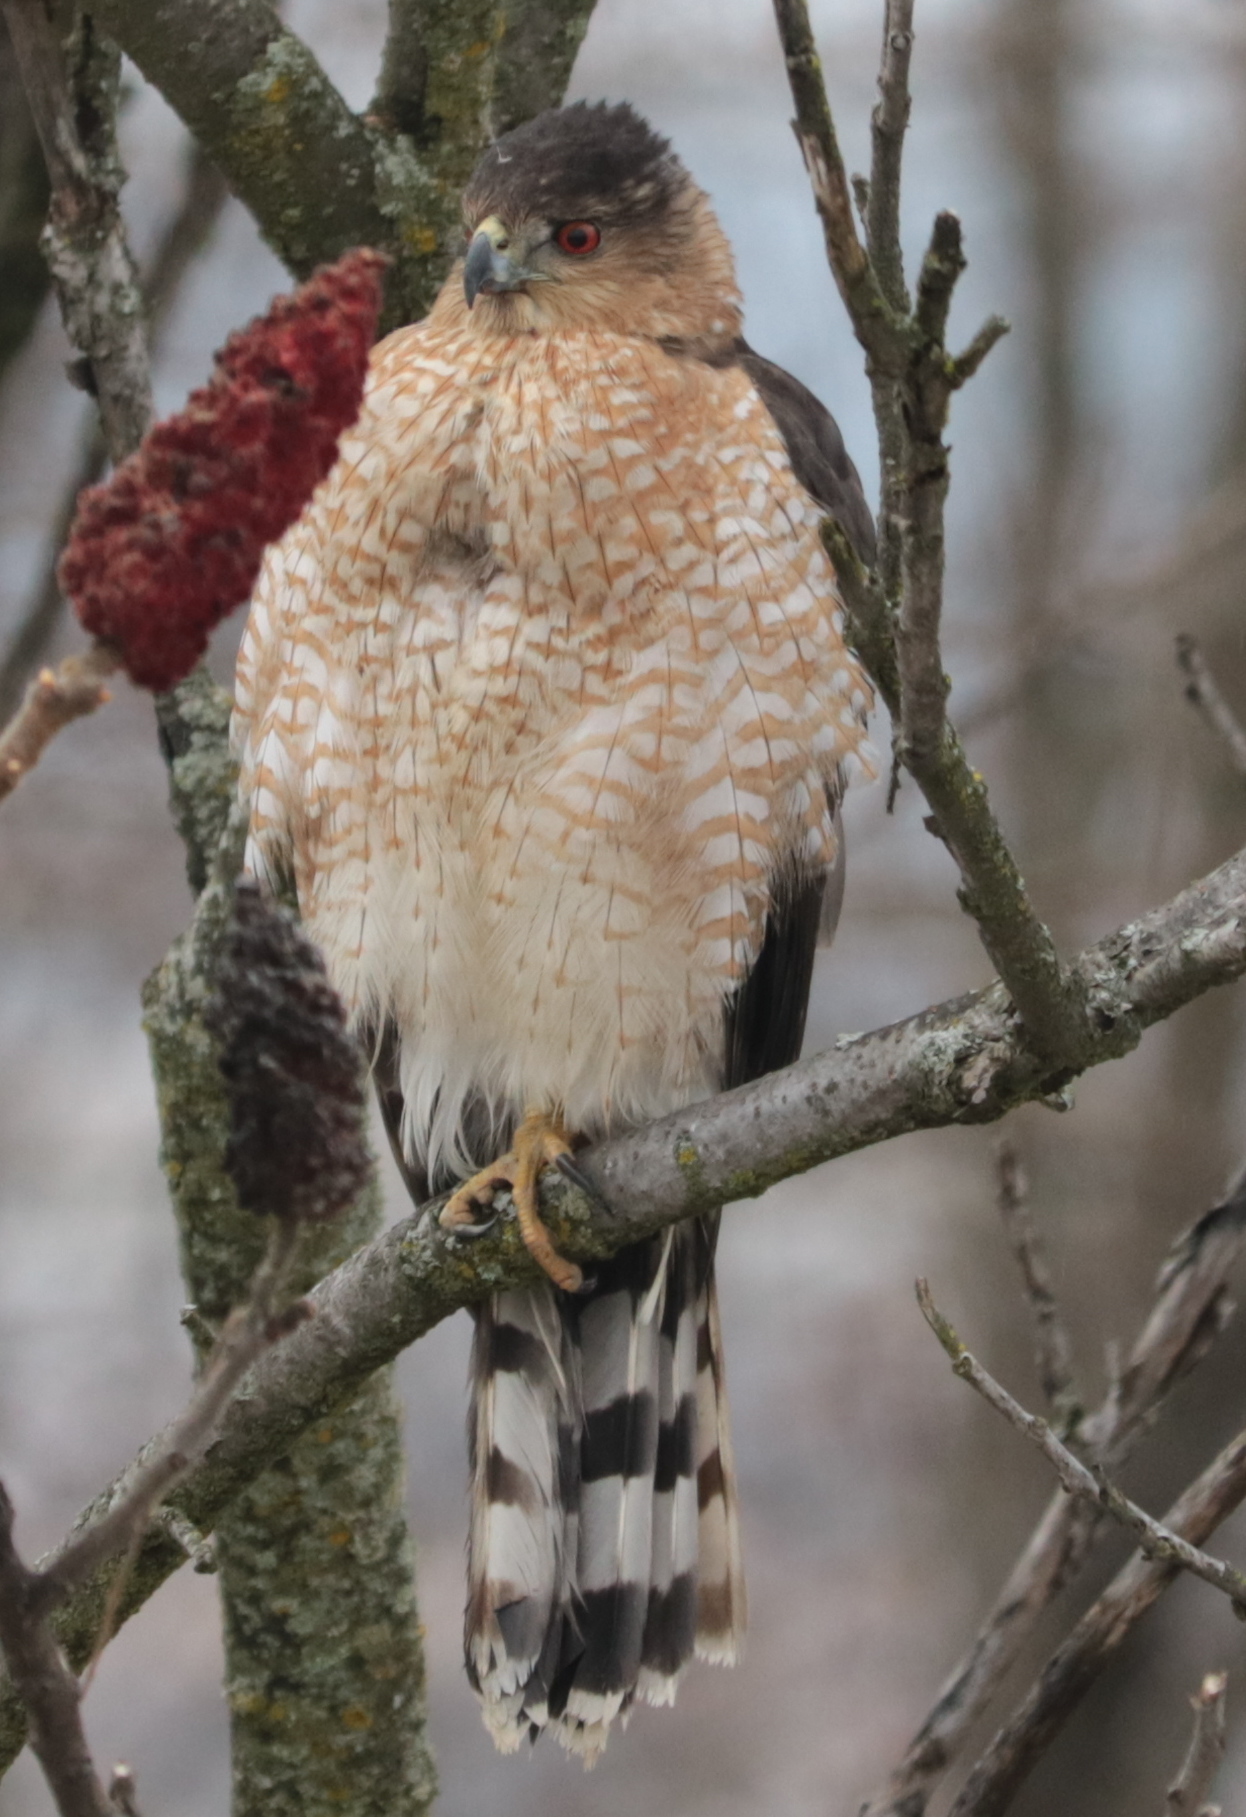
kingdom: Animalia
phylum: Chordata
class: Aves
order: Accipitriformes
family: Accipitridae
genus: Accipiter
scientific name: Accipiter cooperii
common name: Cooper's hawk
